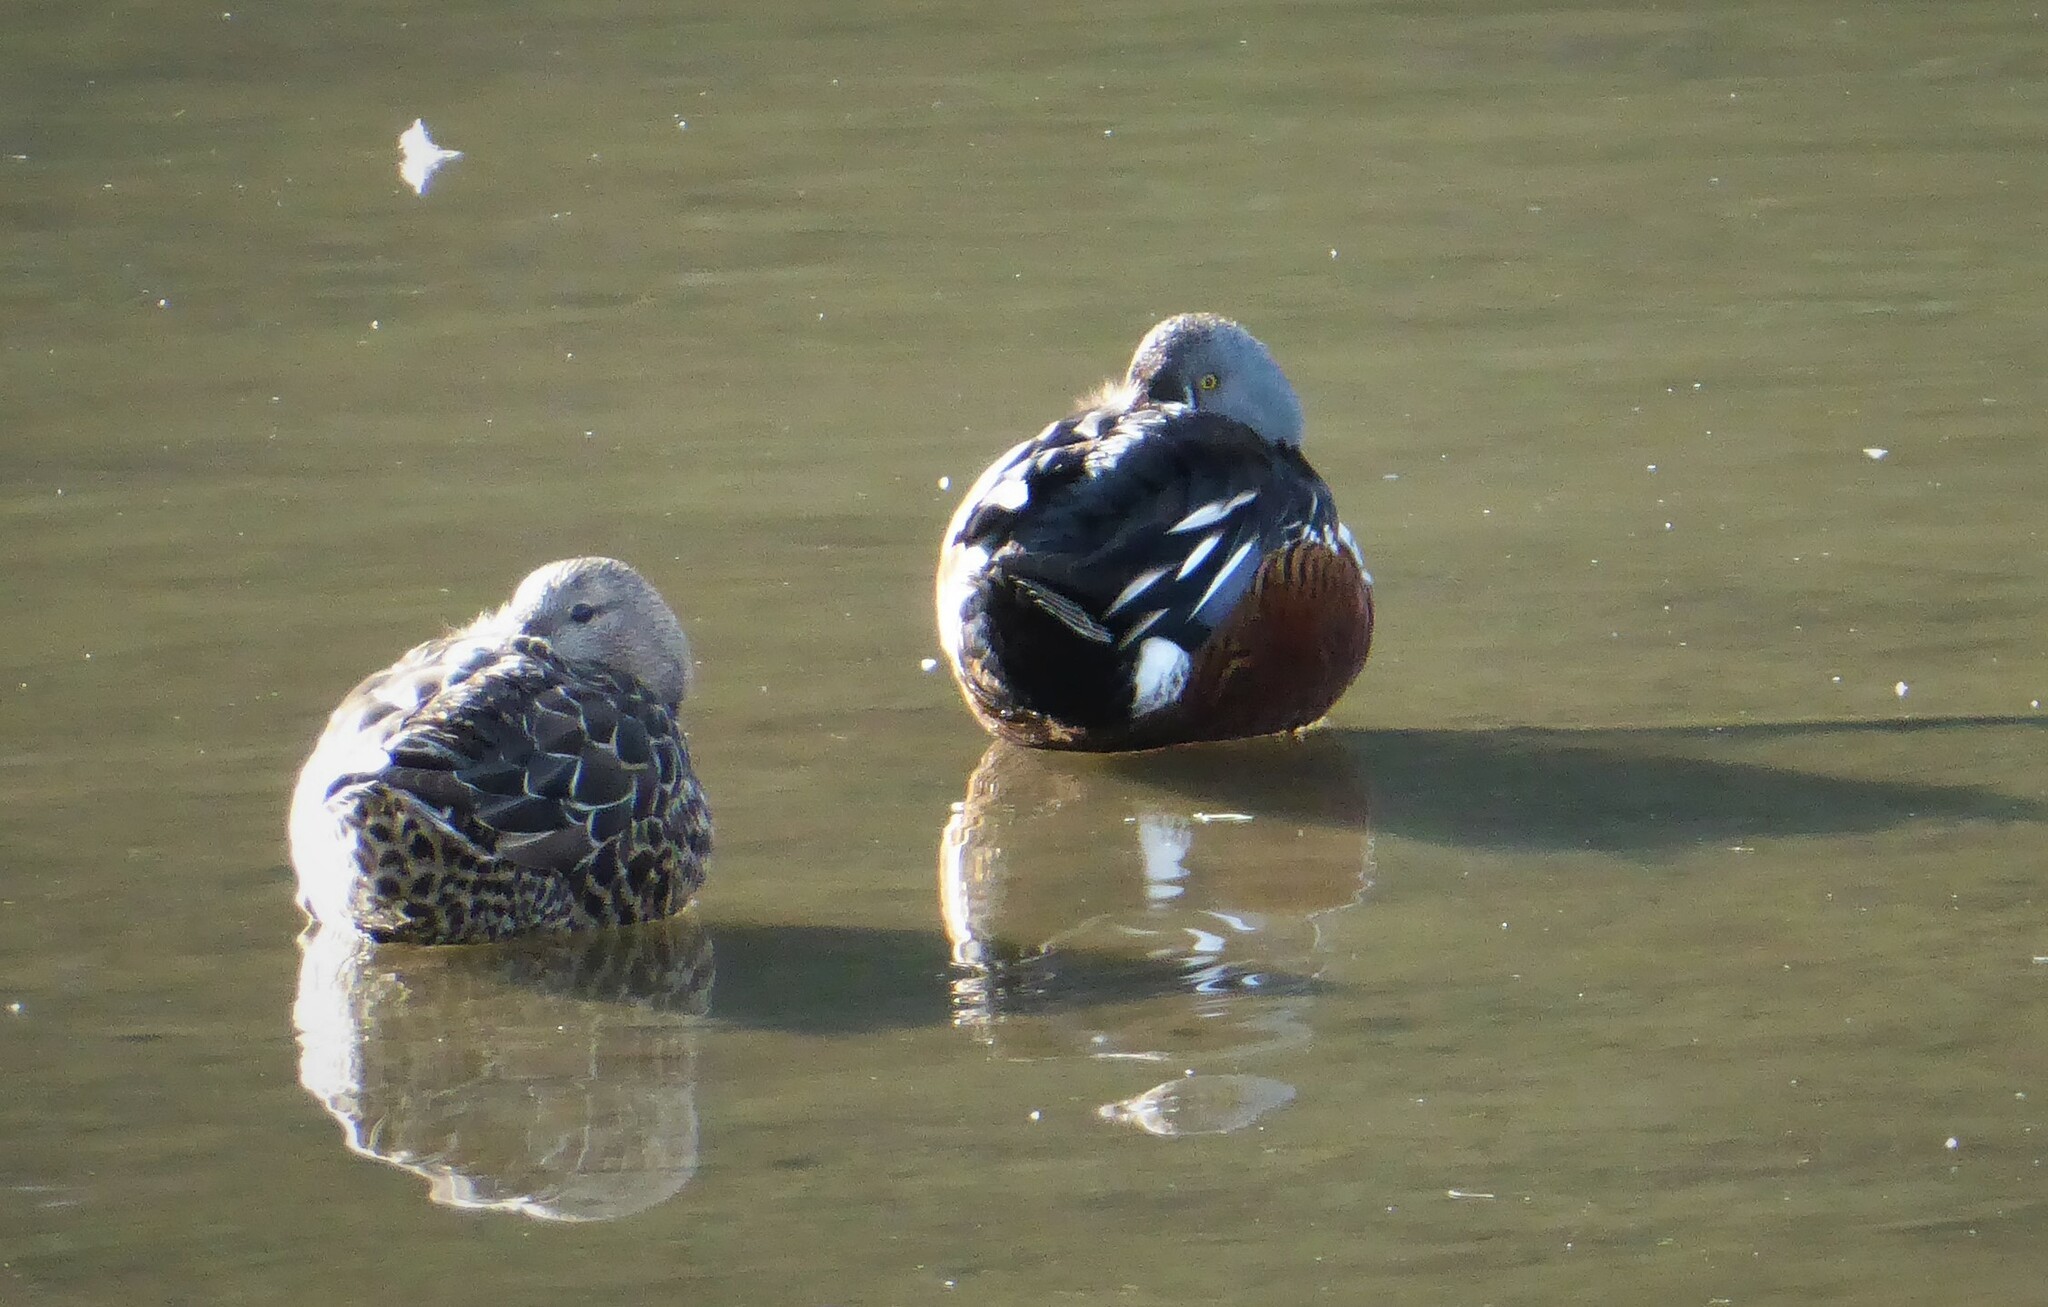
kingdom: Animalia
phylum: Chordata
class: Aves
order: Anseriformes
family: Anatidae
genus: Spatula
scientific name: Spatula rhynchotis
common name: Australian shoveler
